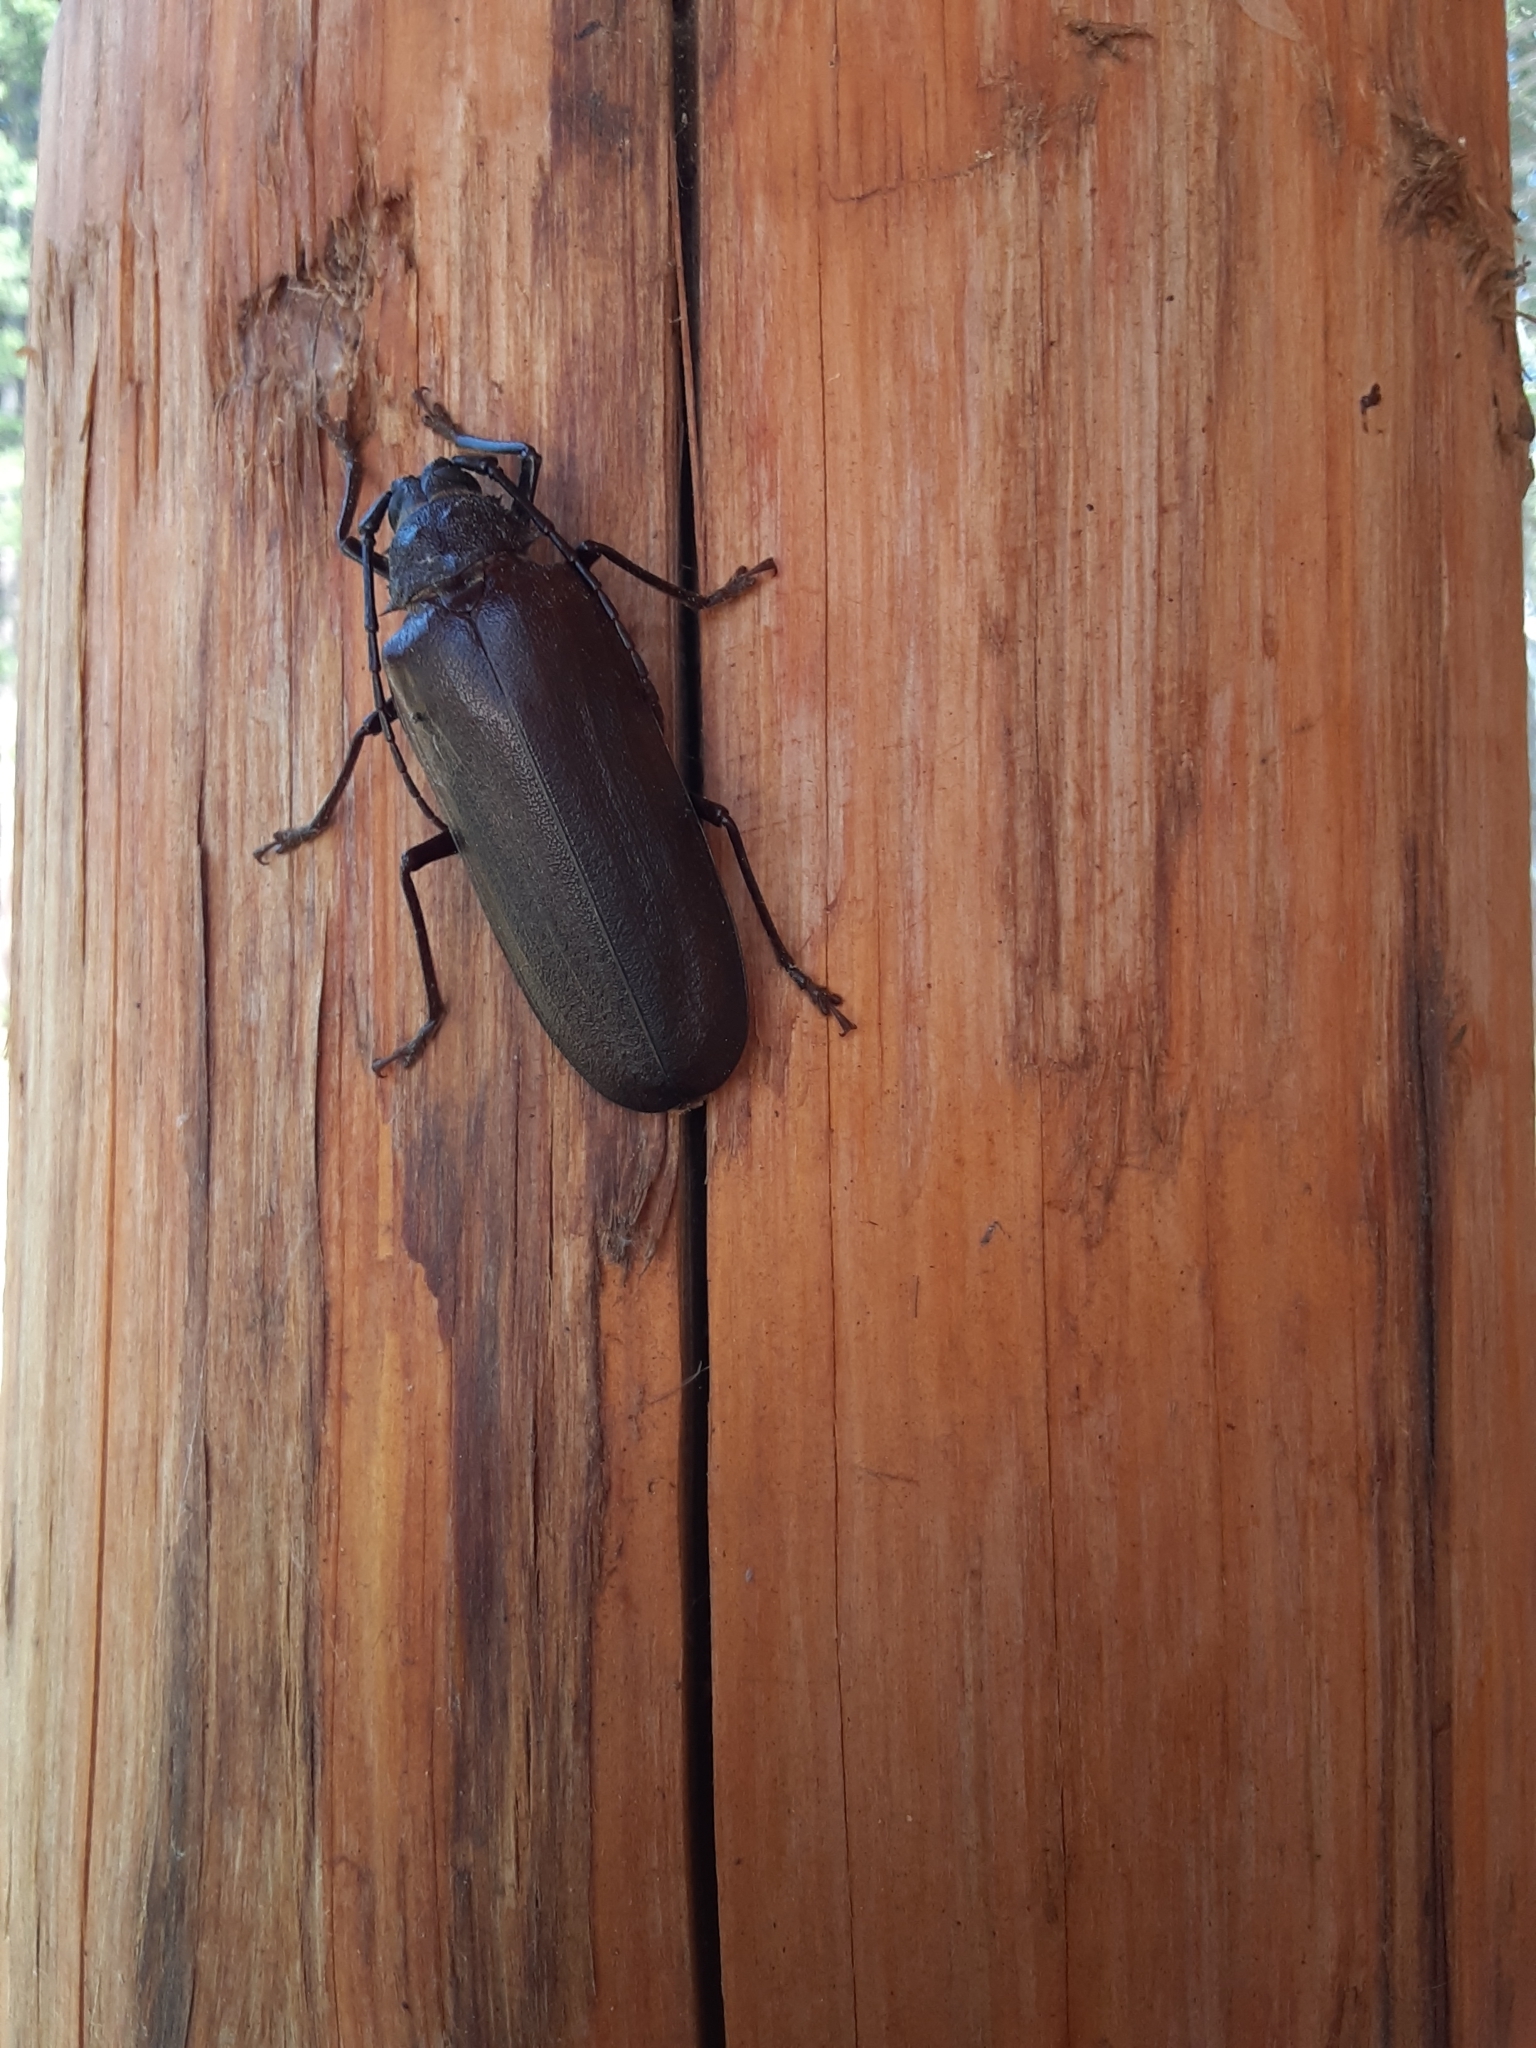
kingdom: Animalia
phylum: Arthropoda
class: Insecta
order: Coleoptera
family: Cerambycidae
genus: Trichocnemis
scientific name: Trichocnemis spiculatus
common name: Long-horned beetle
